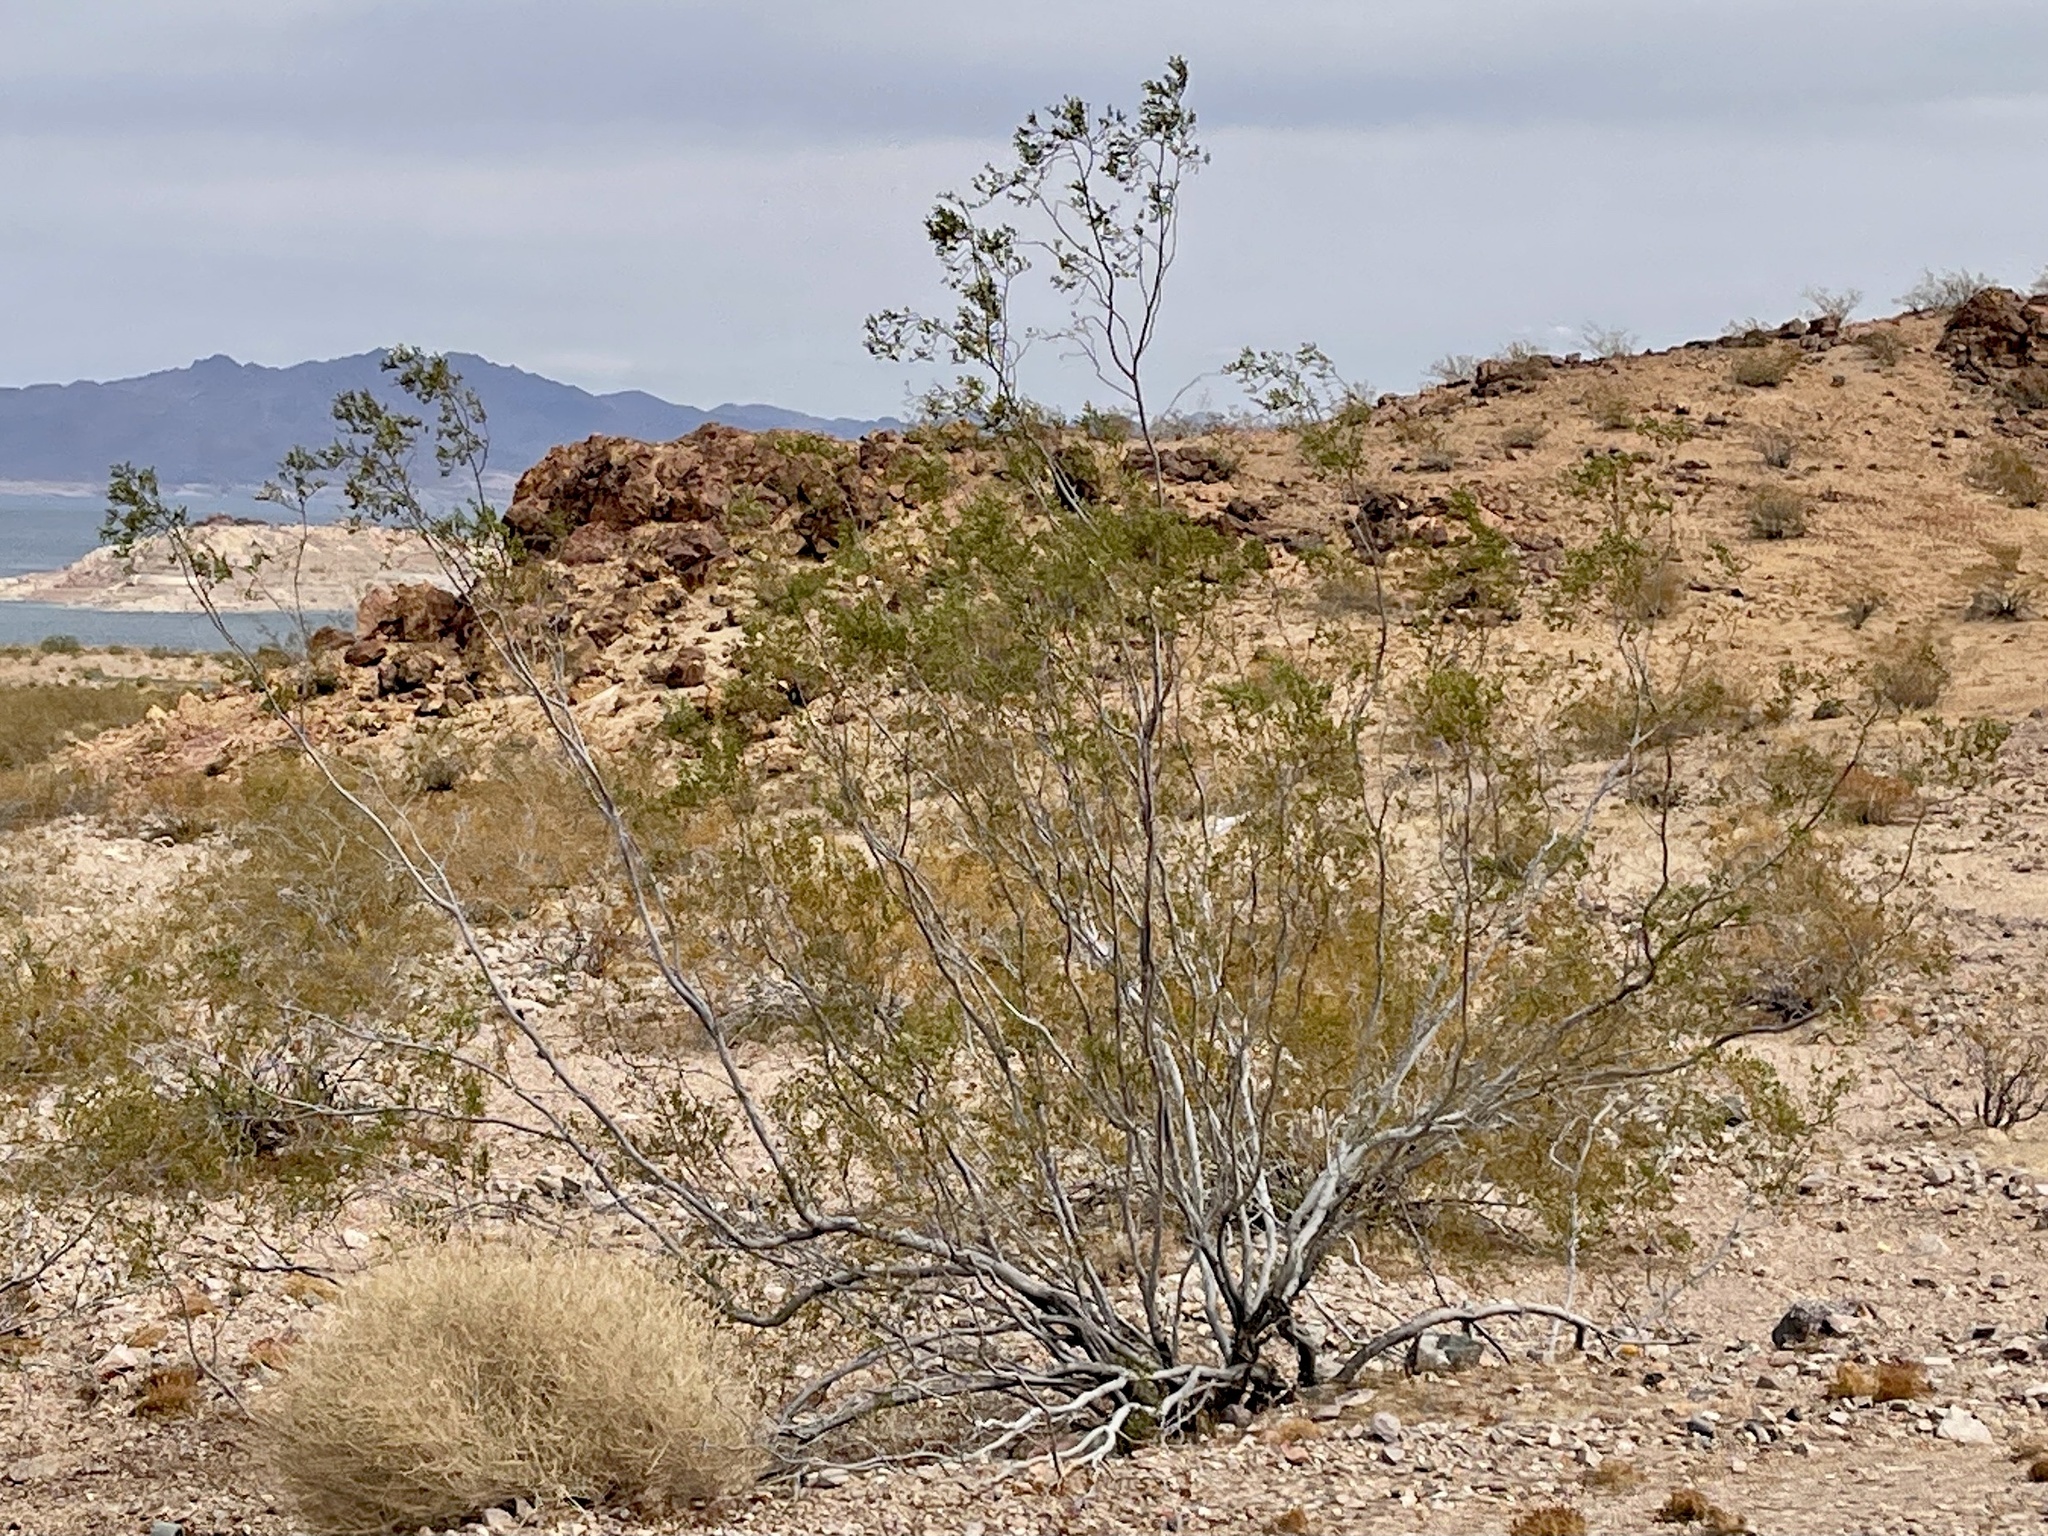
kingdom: Plantae
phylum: Tracheophyta
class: Magnoliopsida
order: Zygophyllales
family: Zygophyllaceae
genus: Larrea
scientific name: Larrea tridentata
